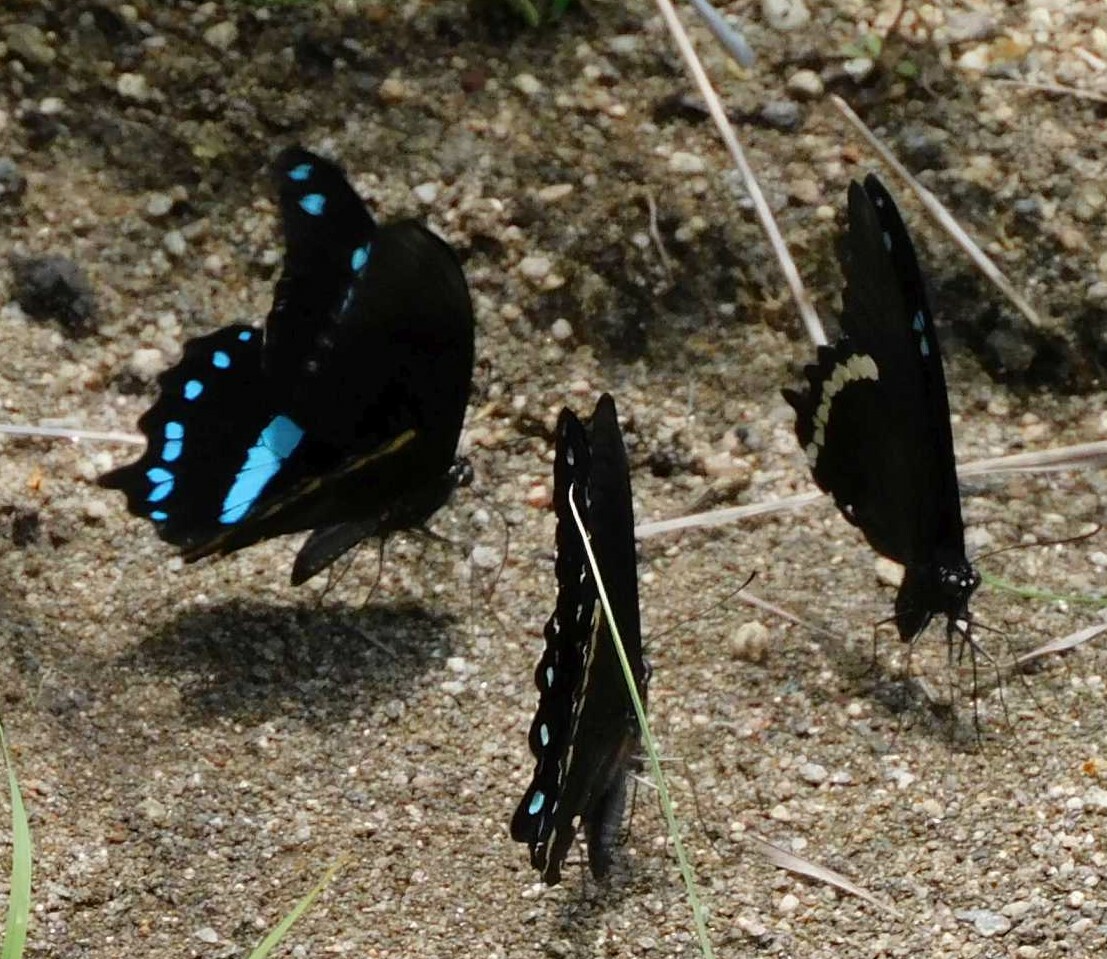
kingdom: Animalia
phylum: Arthropoda
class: Insecta
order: Lepidoptera
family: Papilionidae
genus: Papilio
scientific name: Papilio nireus
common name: Greenbanded swallowtail
